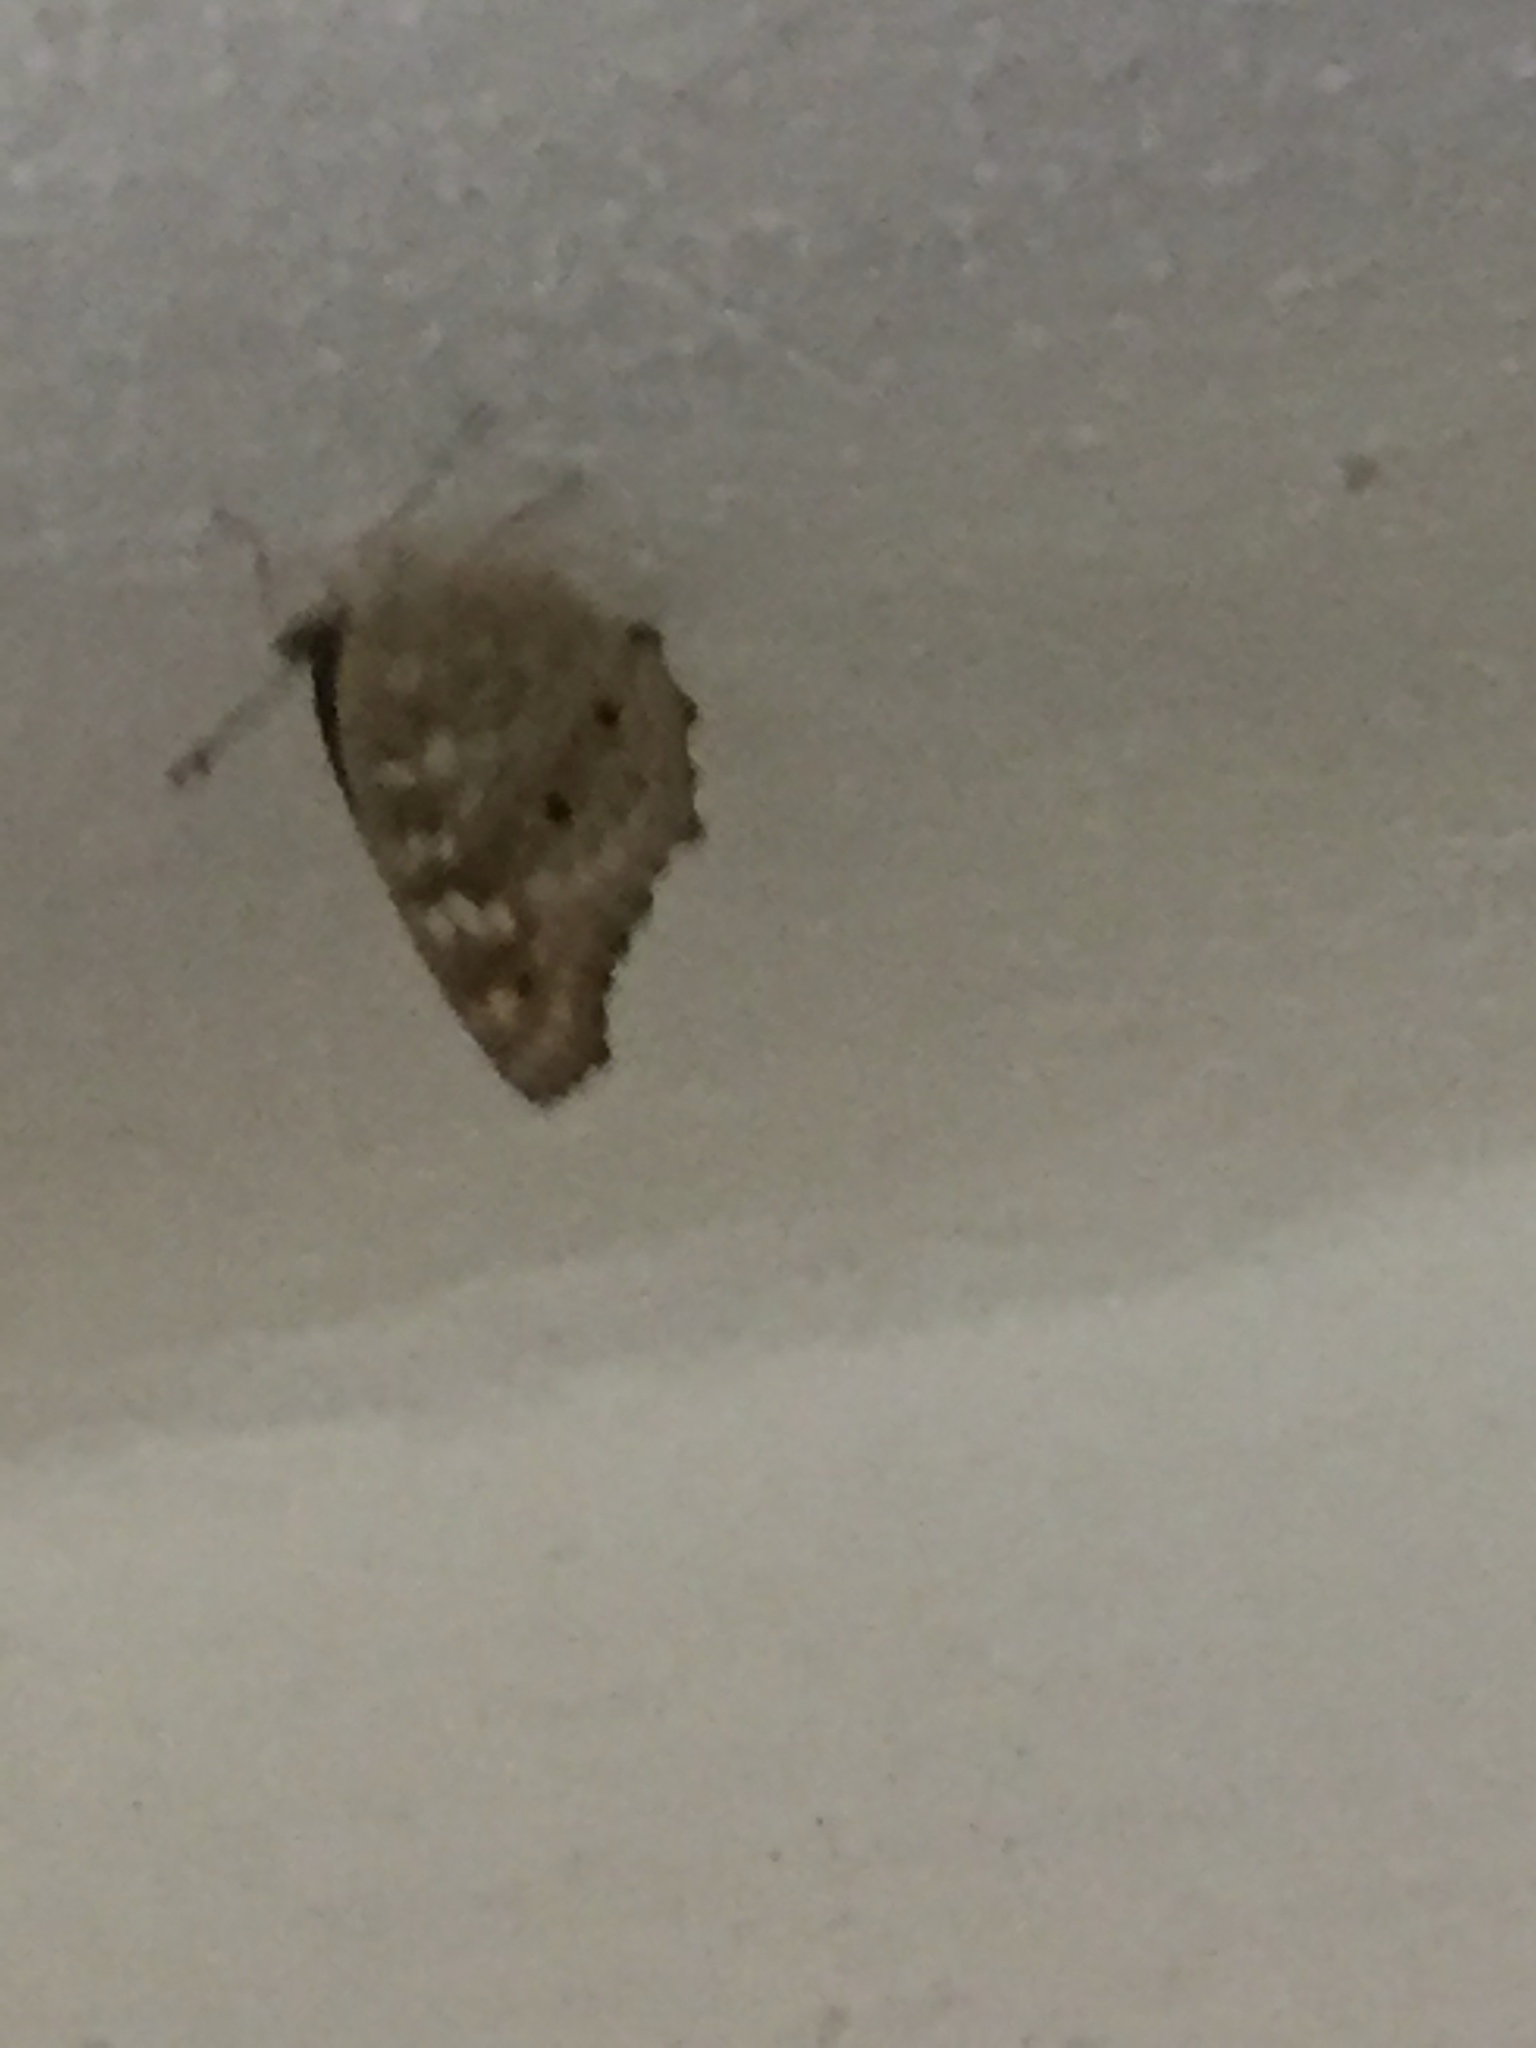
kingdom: Animalia
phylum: Arthropoda
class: Insecta
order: Lepidoptera
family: Nymphalidae
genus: Junonia
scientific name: Junonia lemonias
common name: Lemon pansy
